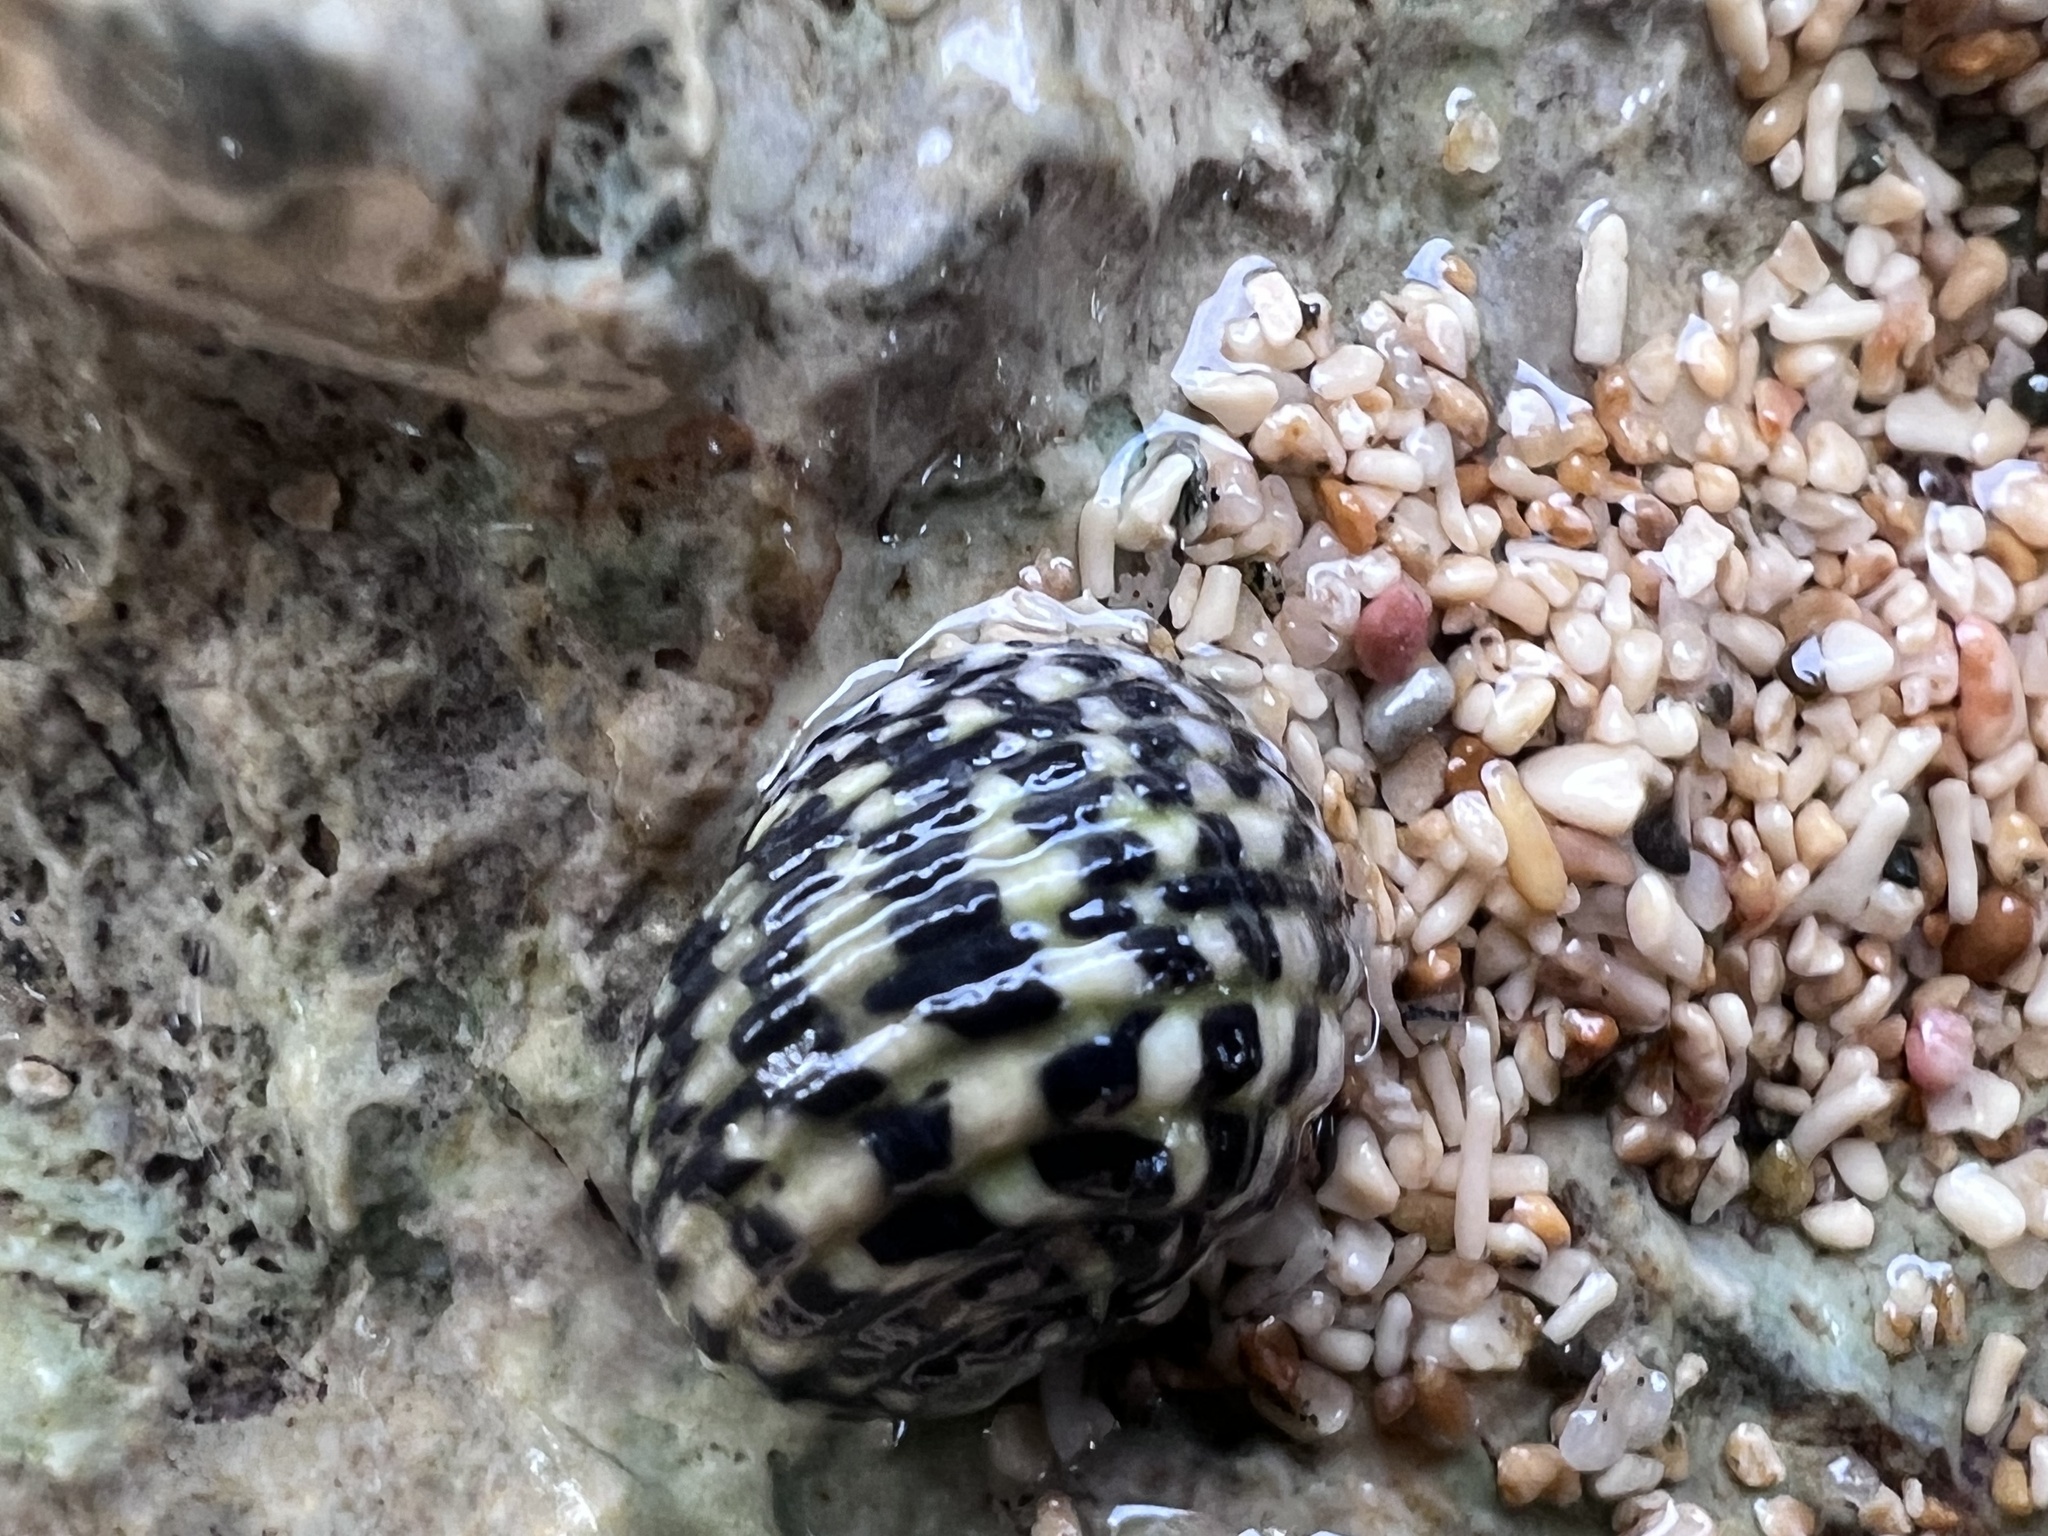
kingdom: Animalia
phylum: Mollusca
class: Gastropoda
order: Cycloneritida
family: Neritidae
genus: Nerita
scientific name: Nerita tessellata
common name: Checkered nerite
